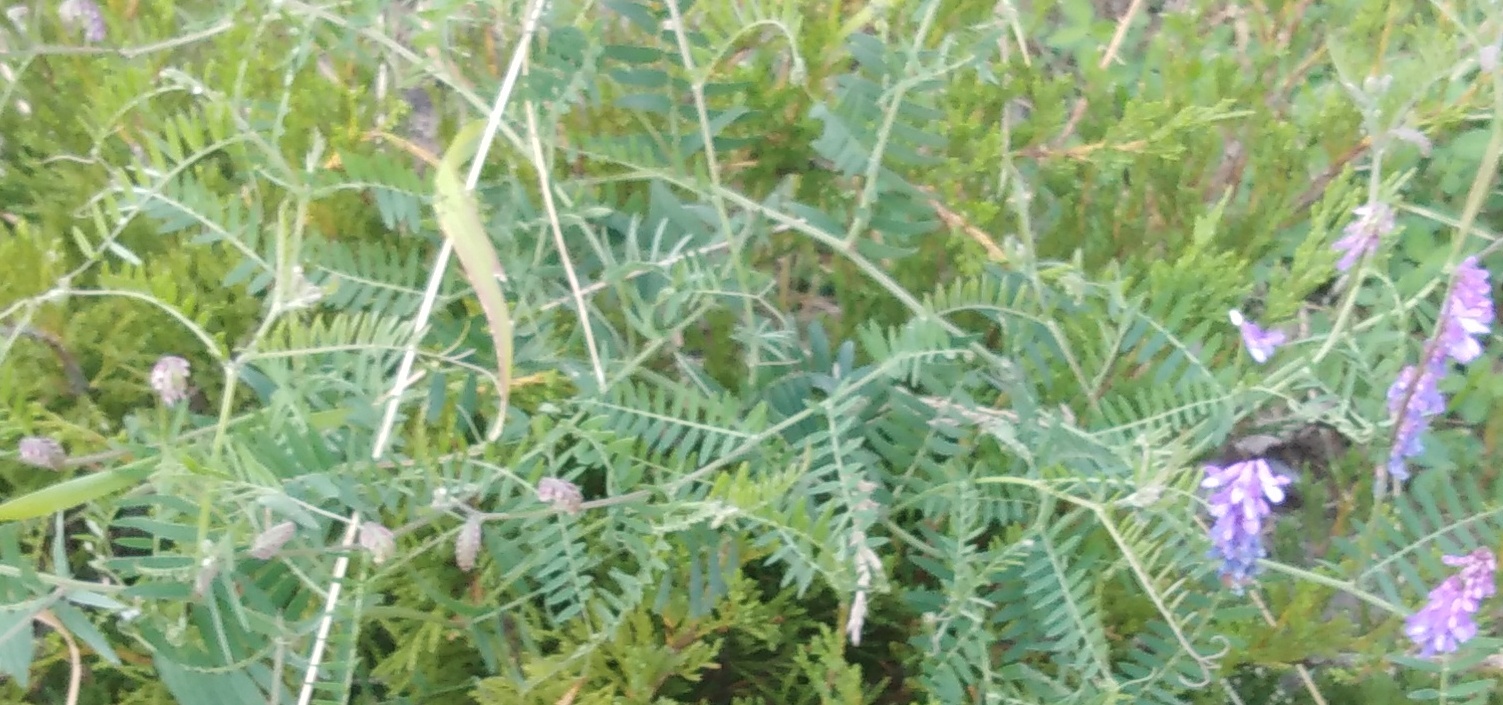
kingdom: Plantae
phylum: Tracheophyta
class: Magnoliopsida
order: Fabales
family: Fabaceae
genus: Vicia
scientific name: Vicia cracca
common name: Bird vetch
